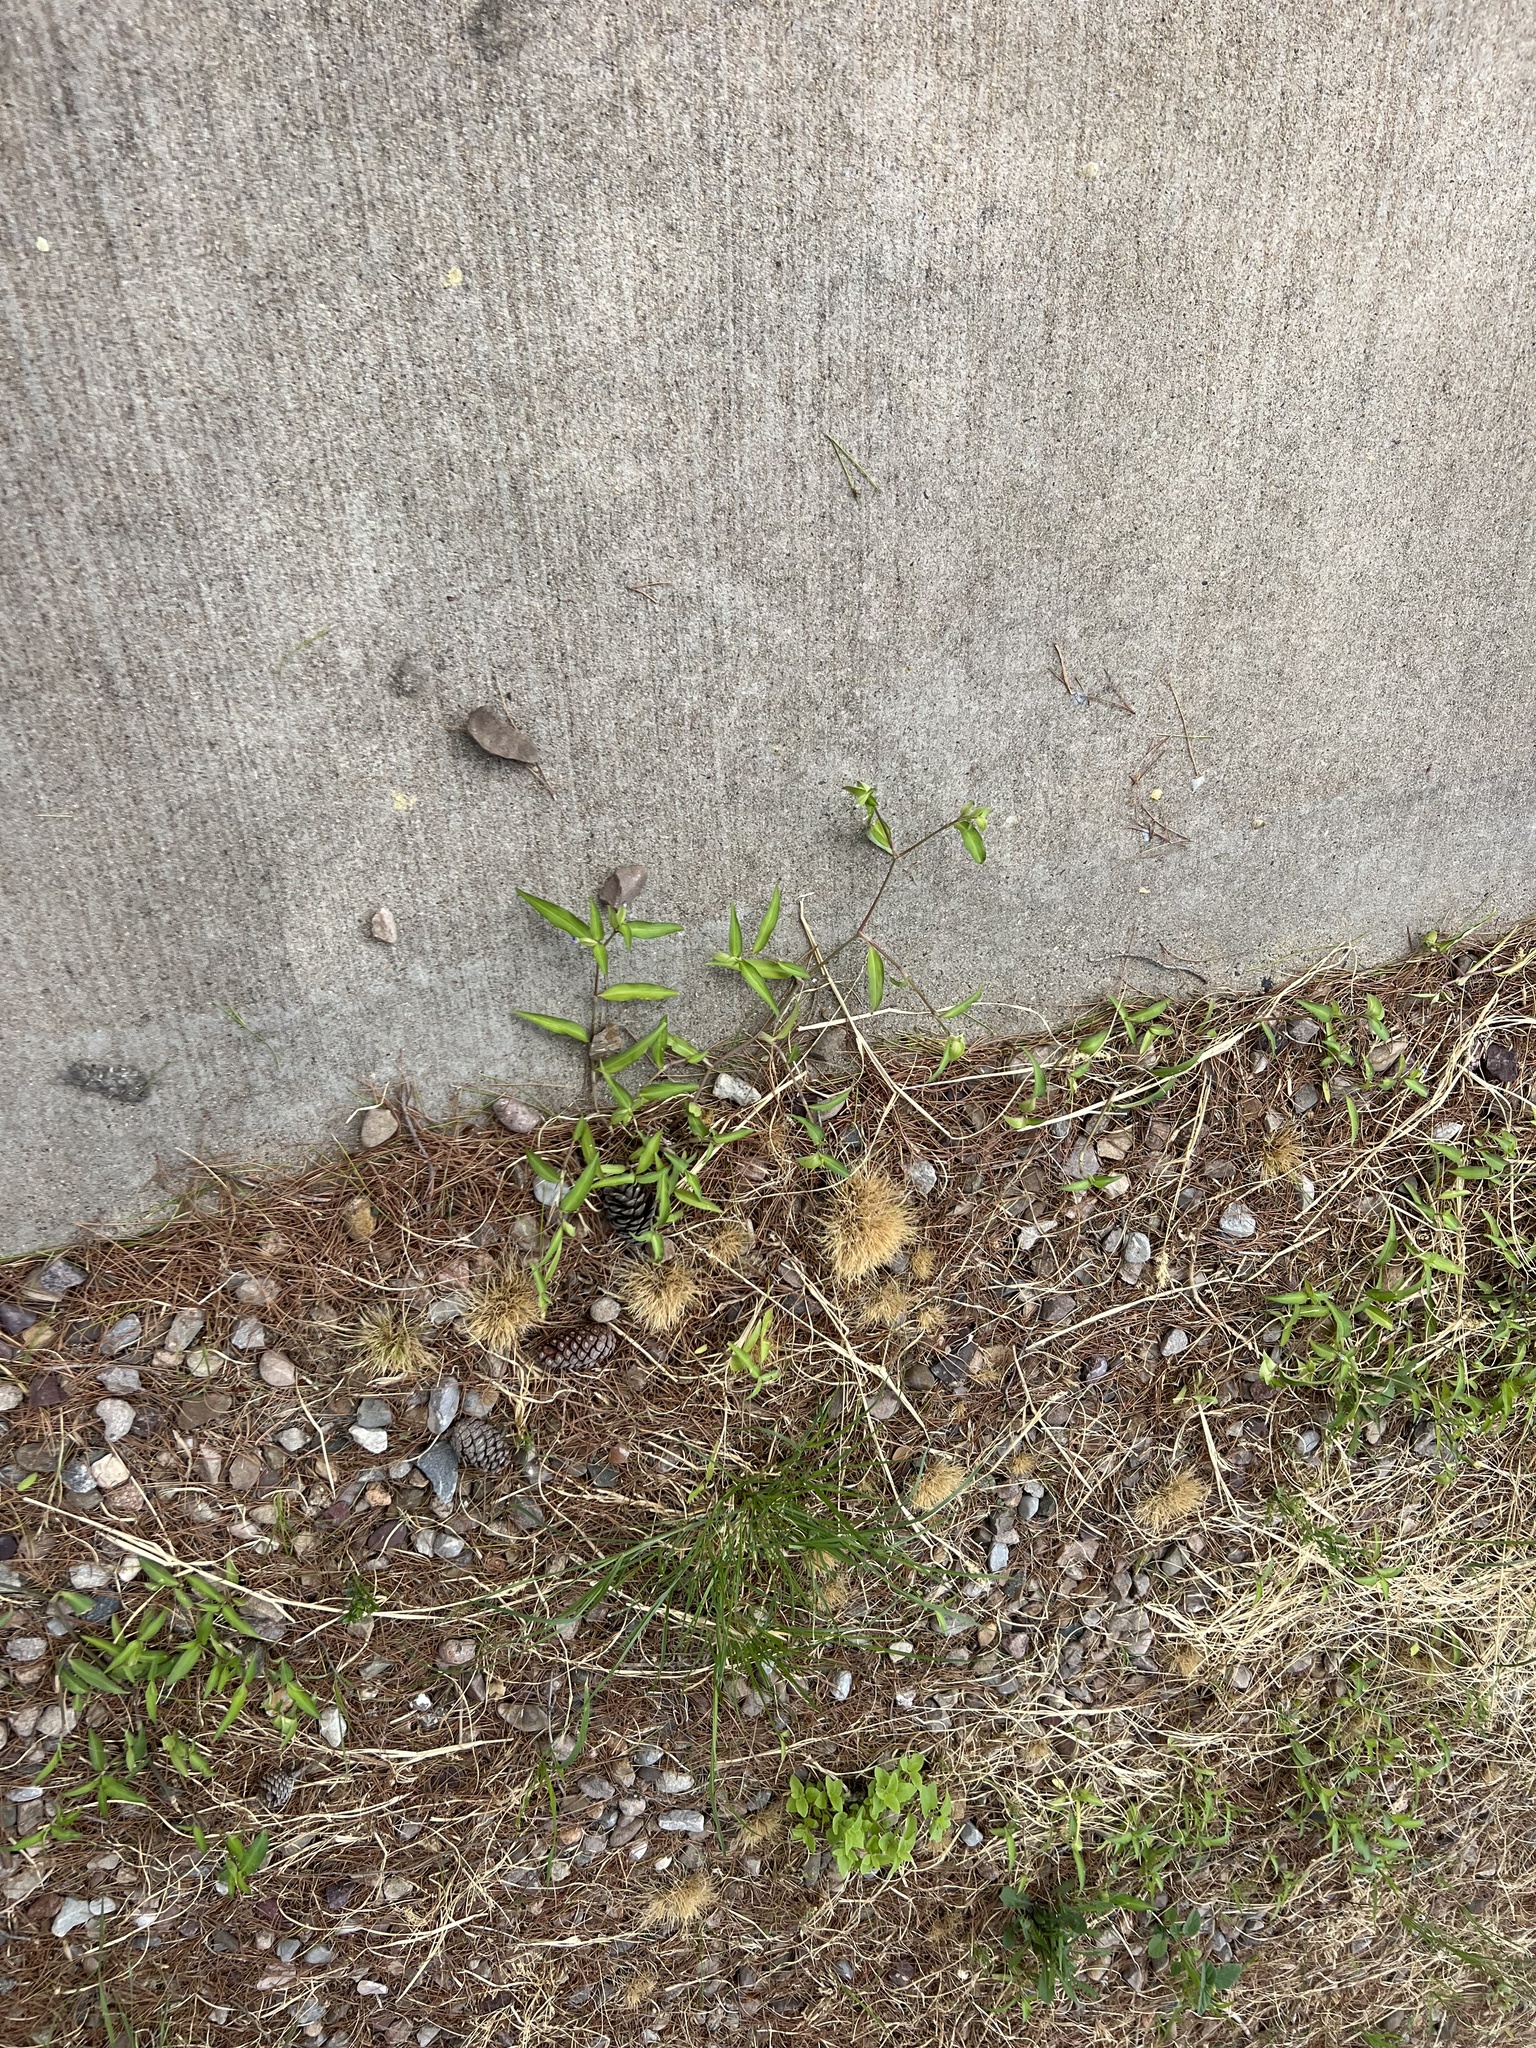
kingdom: Plantae
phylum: Tracheophyta
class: Liliopsida
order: Commelinales
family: Commelinaceae
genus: Commelina
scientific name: Commelina erecta
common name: Blousel blommetjie
